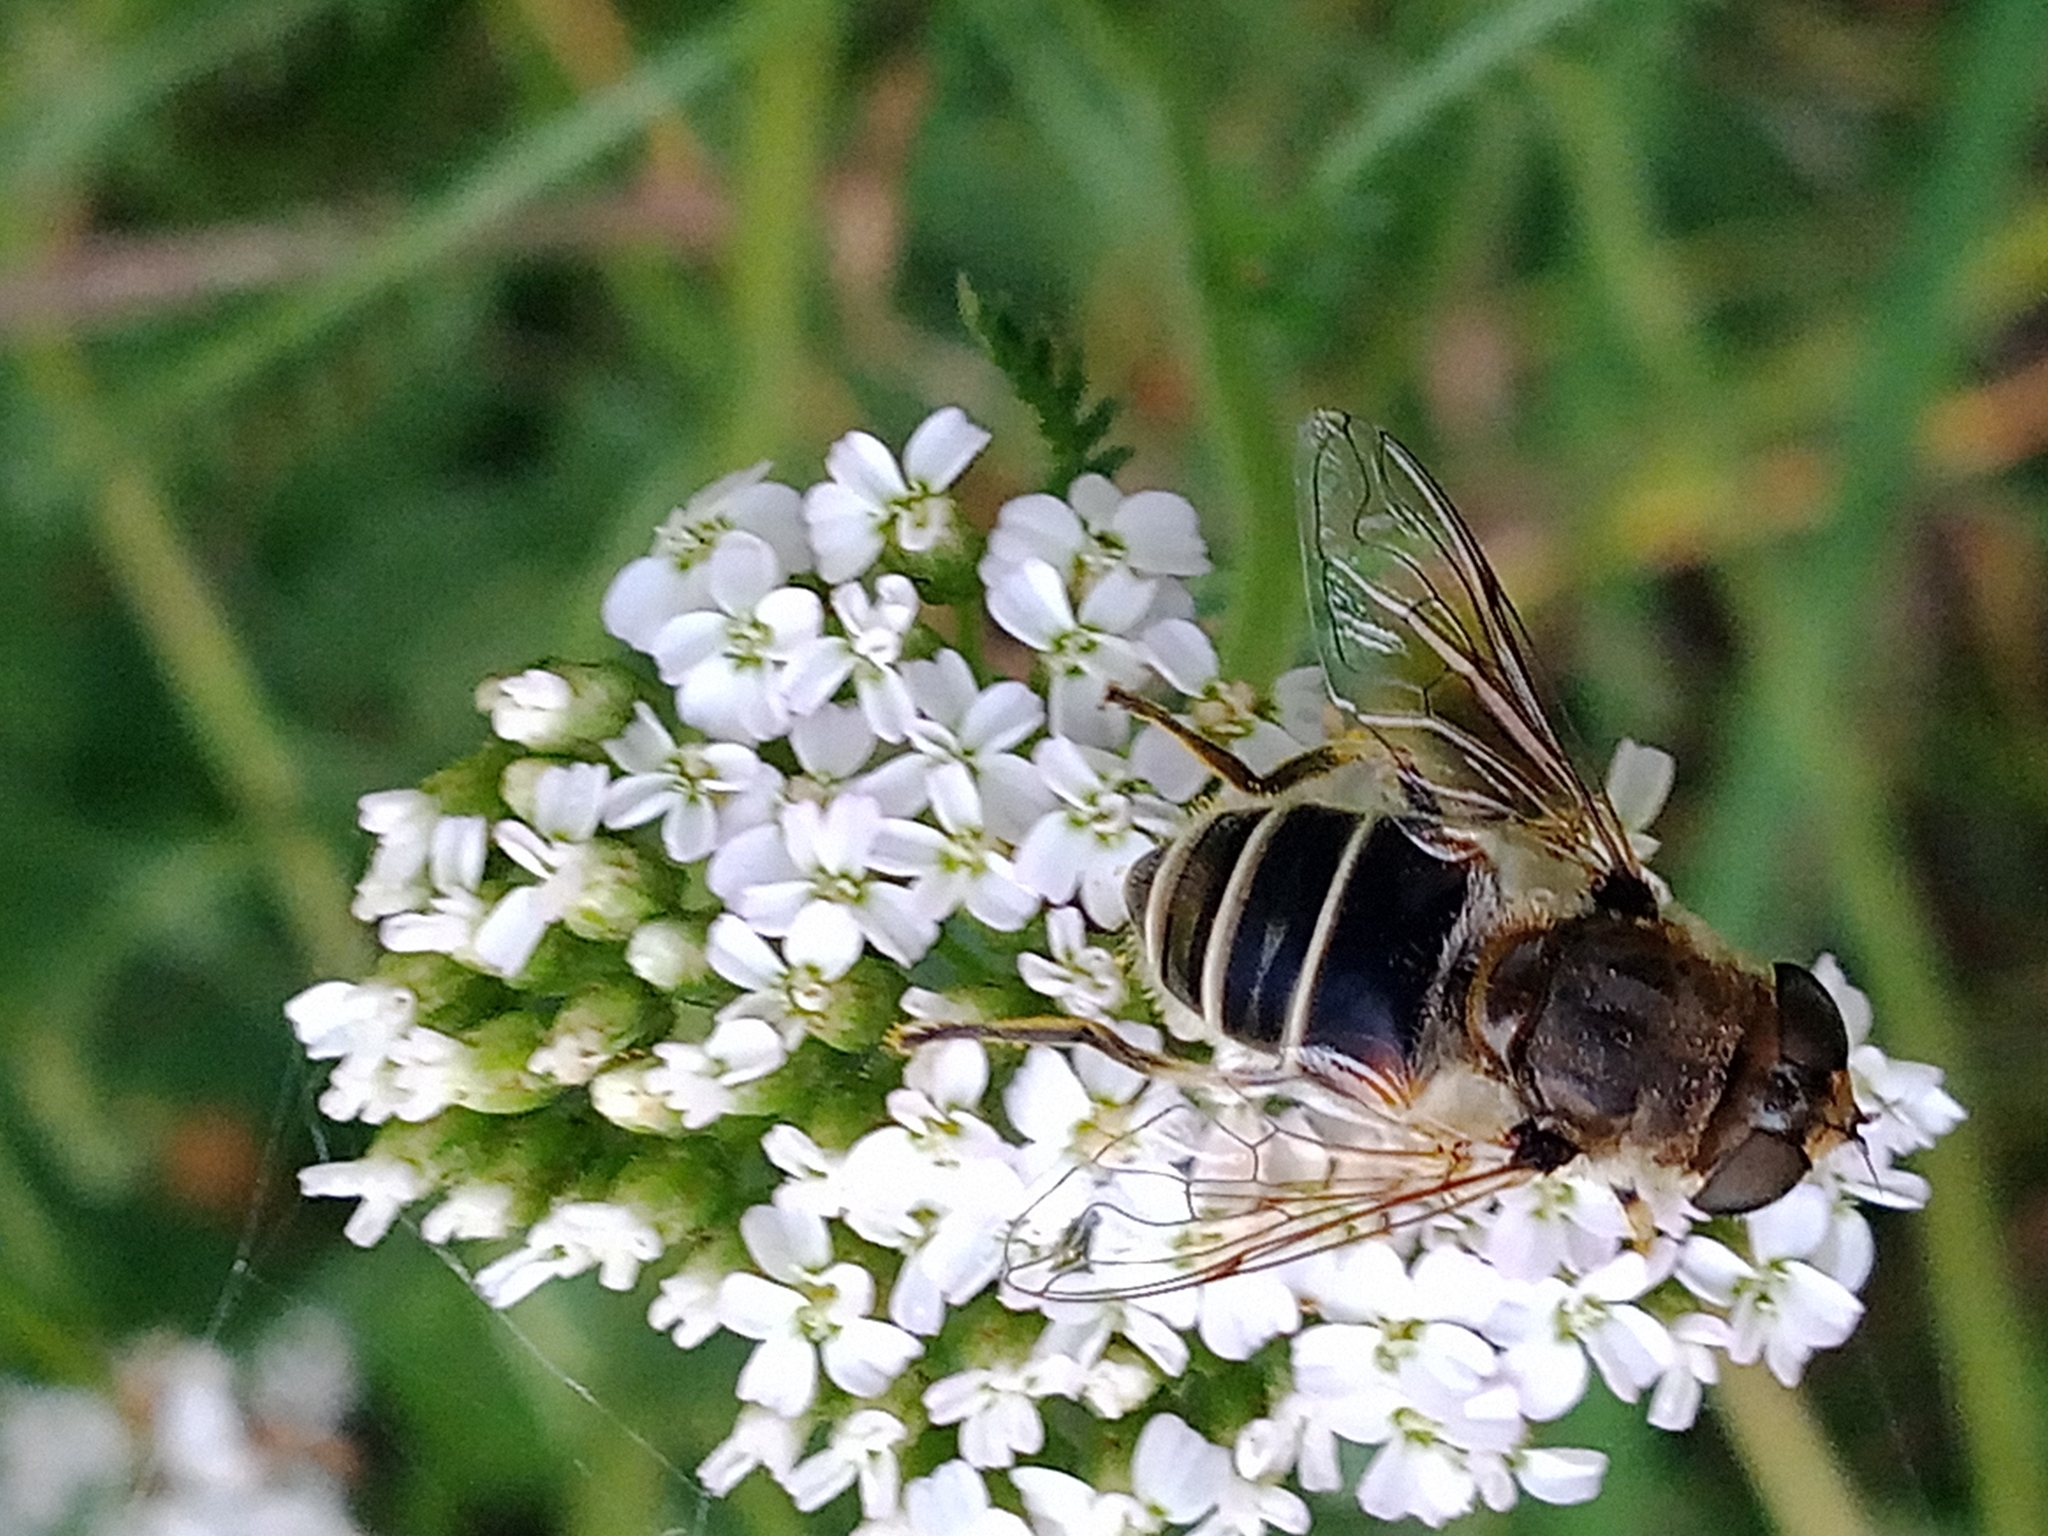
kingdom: Animalia
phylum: Arthropoda
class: Insecta
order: Diptera
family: Syrphidae
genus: Eristalis
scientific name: Eristalis arbustorum
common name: Hover fly
